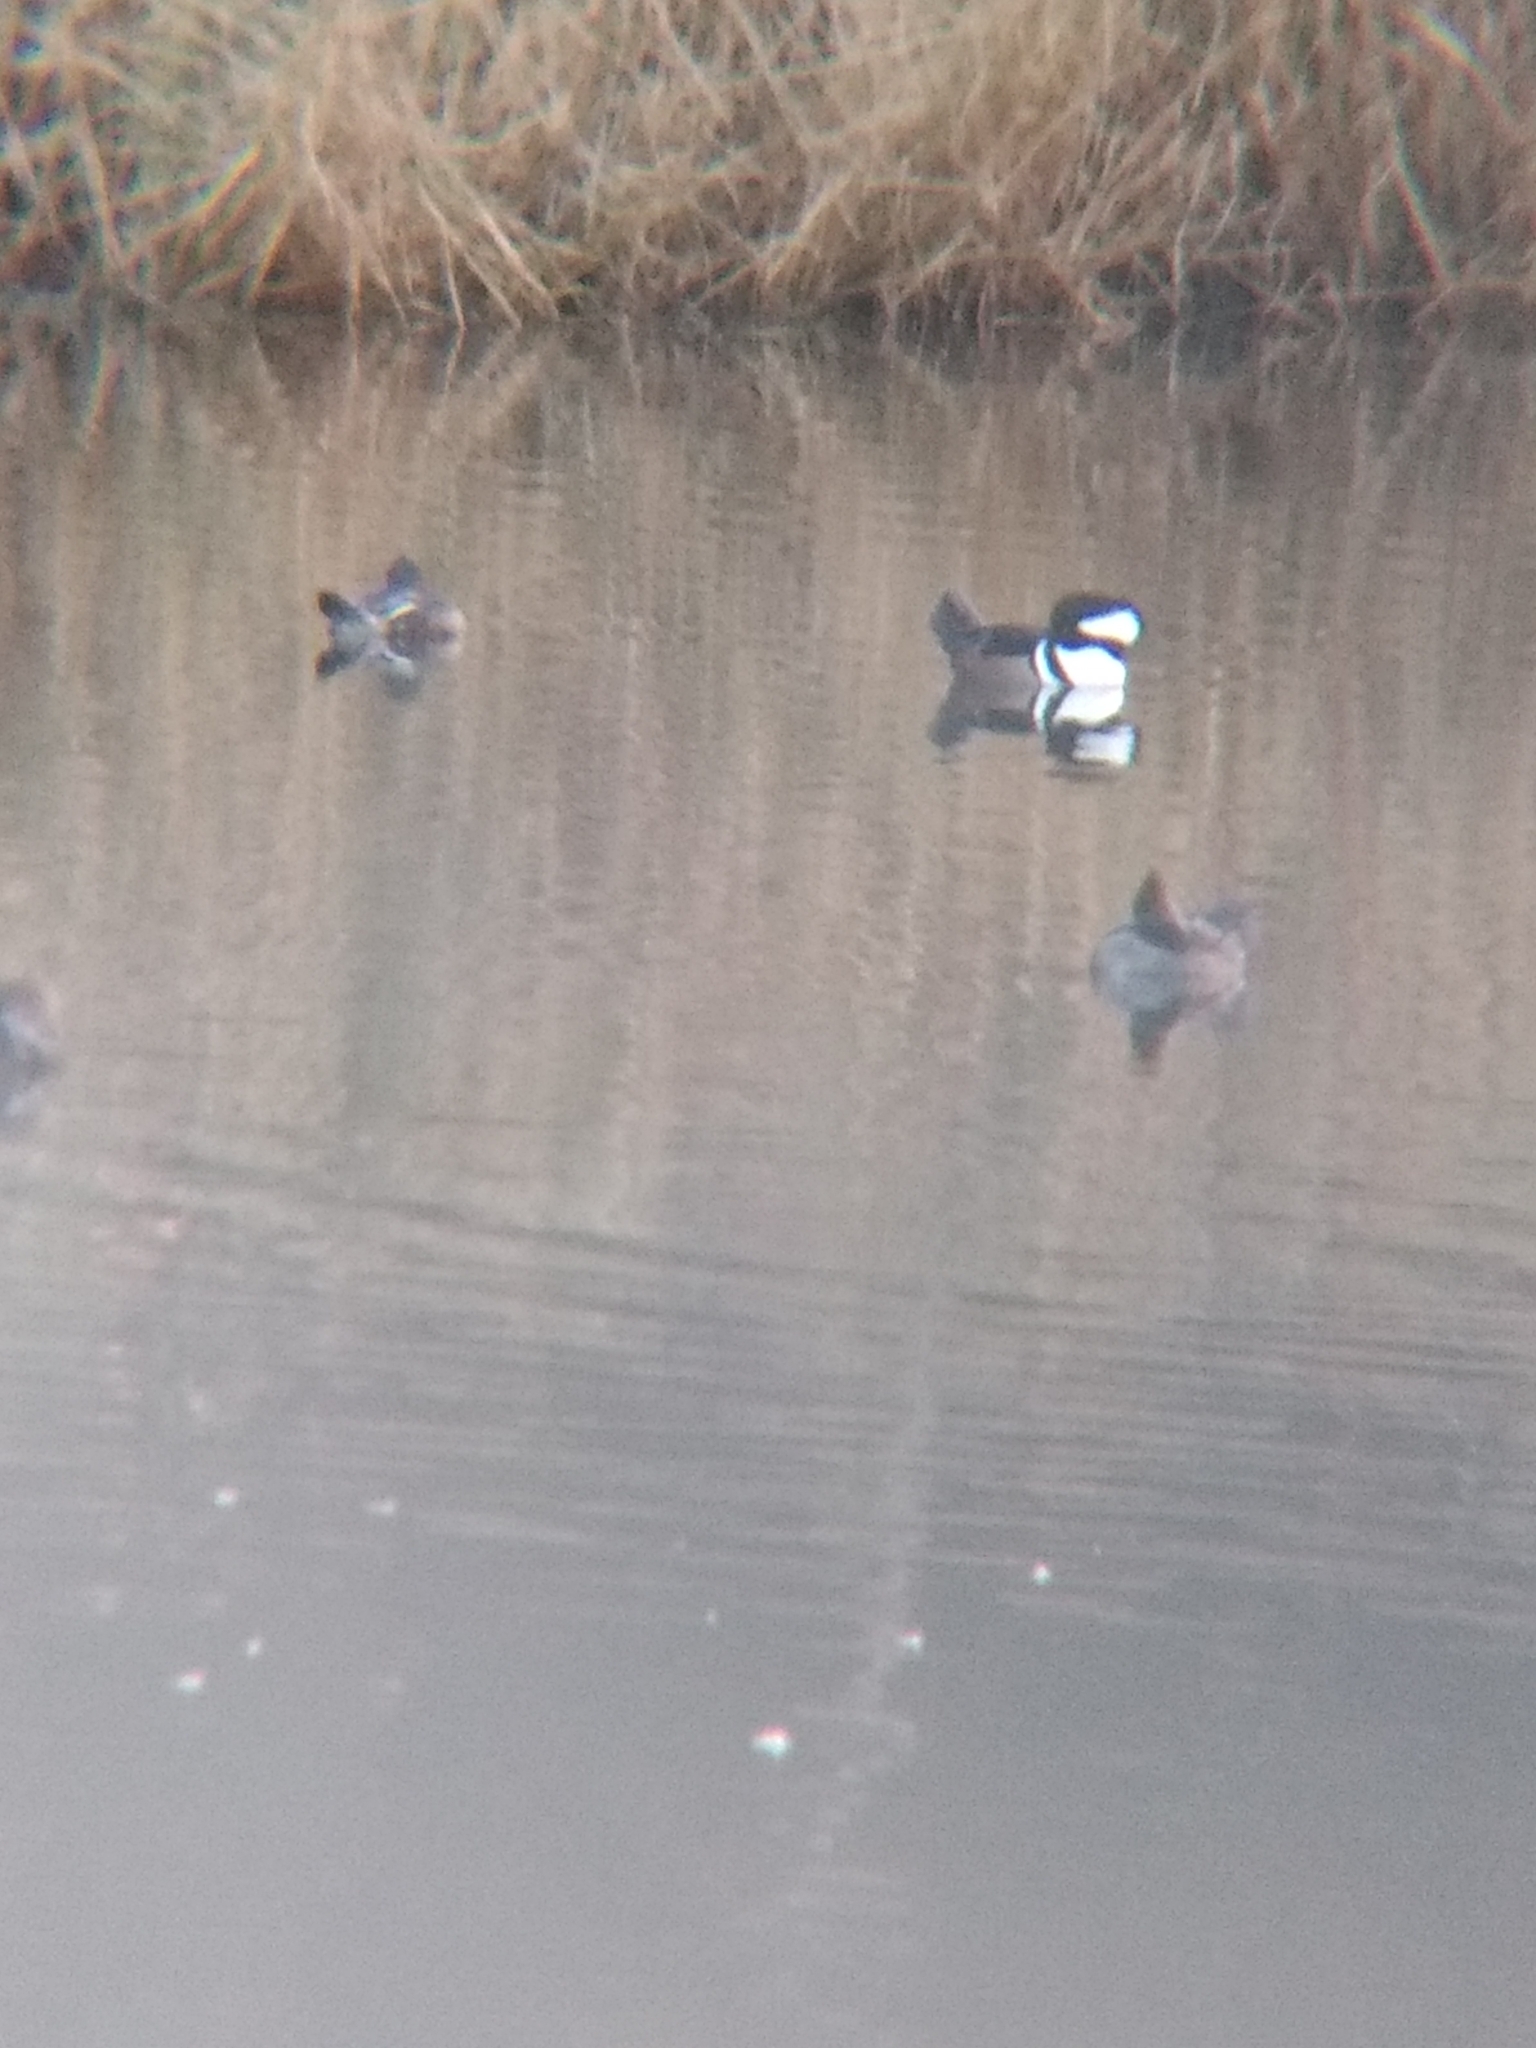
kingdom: Animalia
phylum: Chordata
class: Aves
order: Anseriformes
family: Anatidae
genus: Lophodytes
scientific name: Lophodytes cucullatus
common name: Hooded merganser
